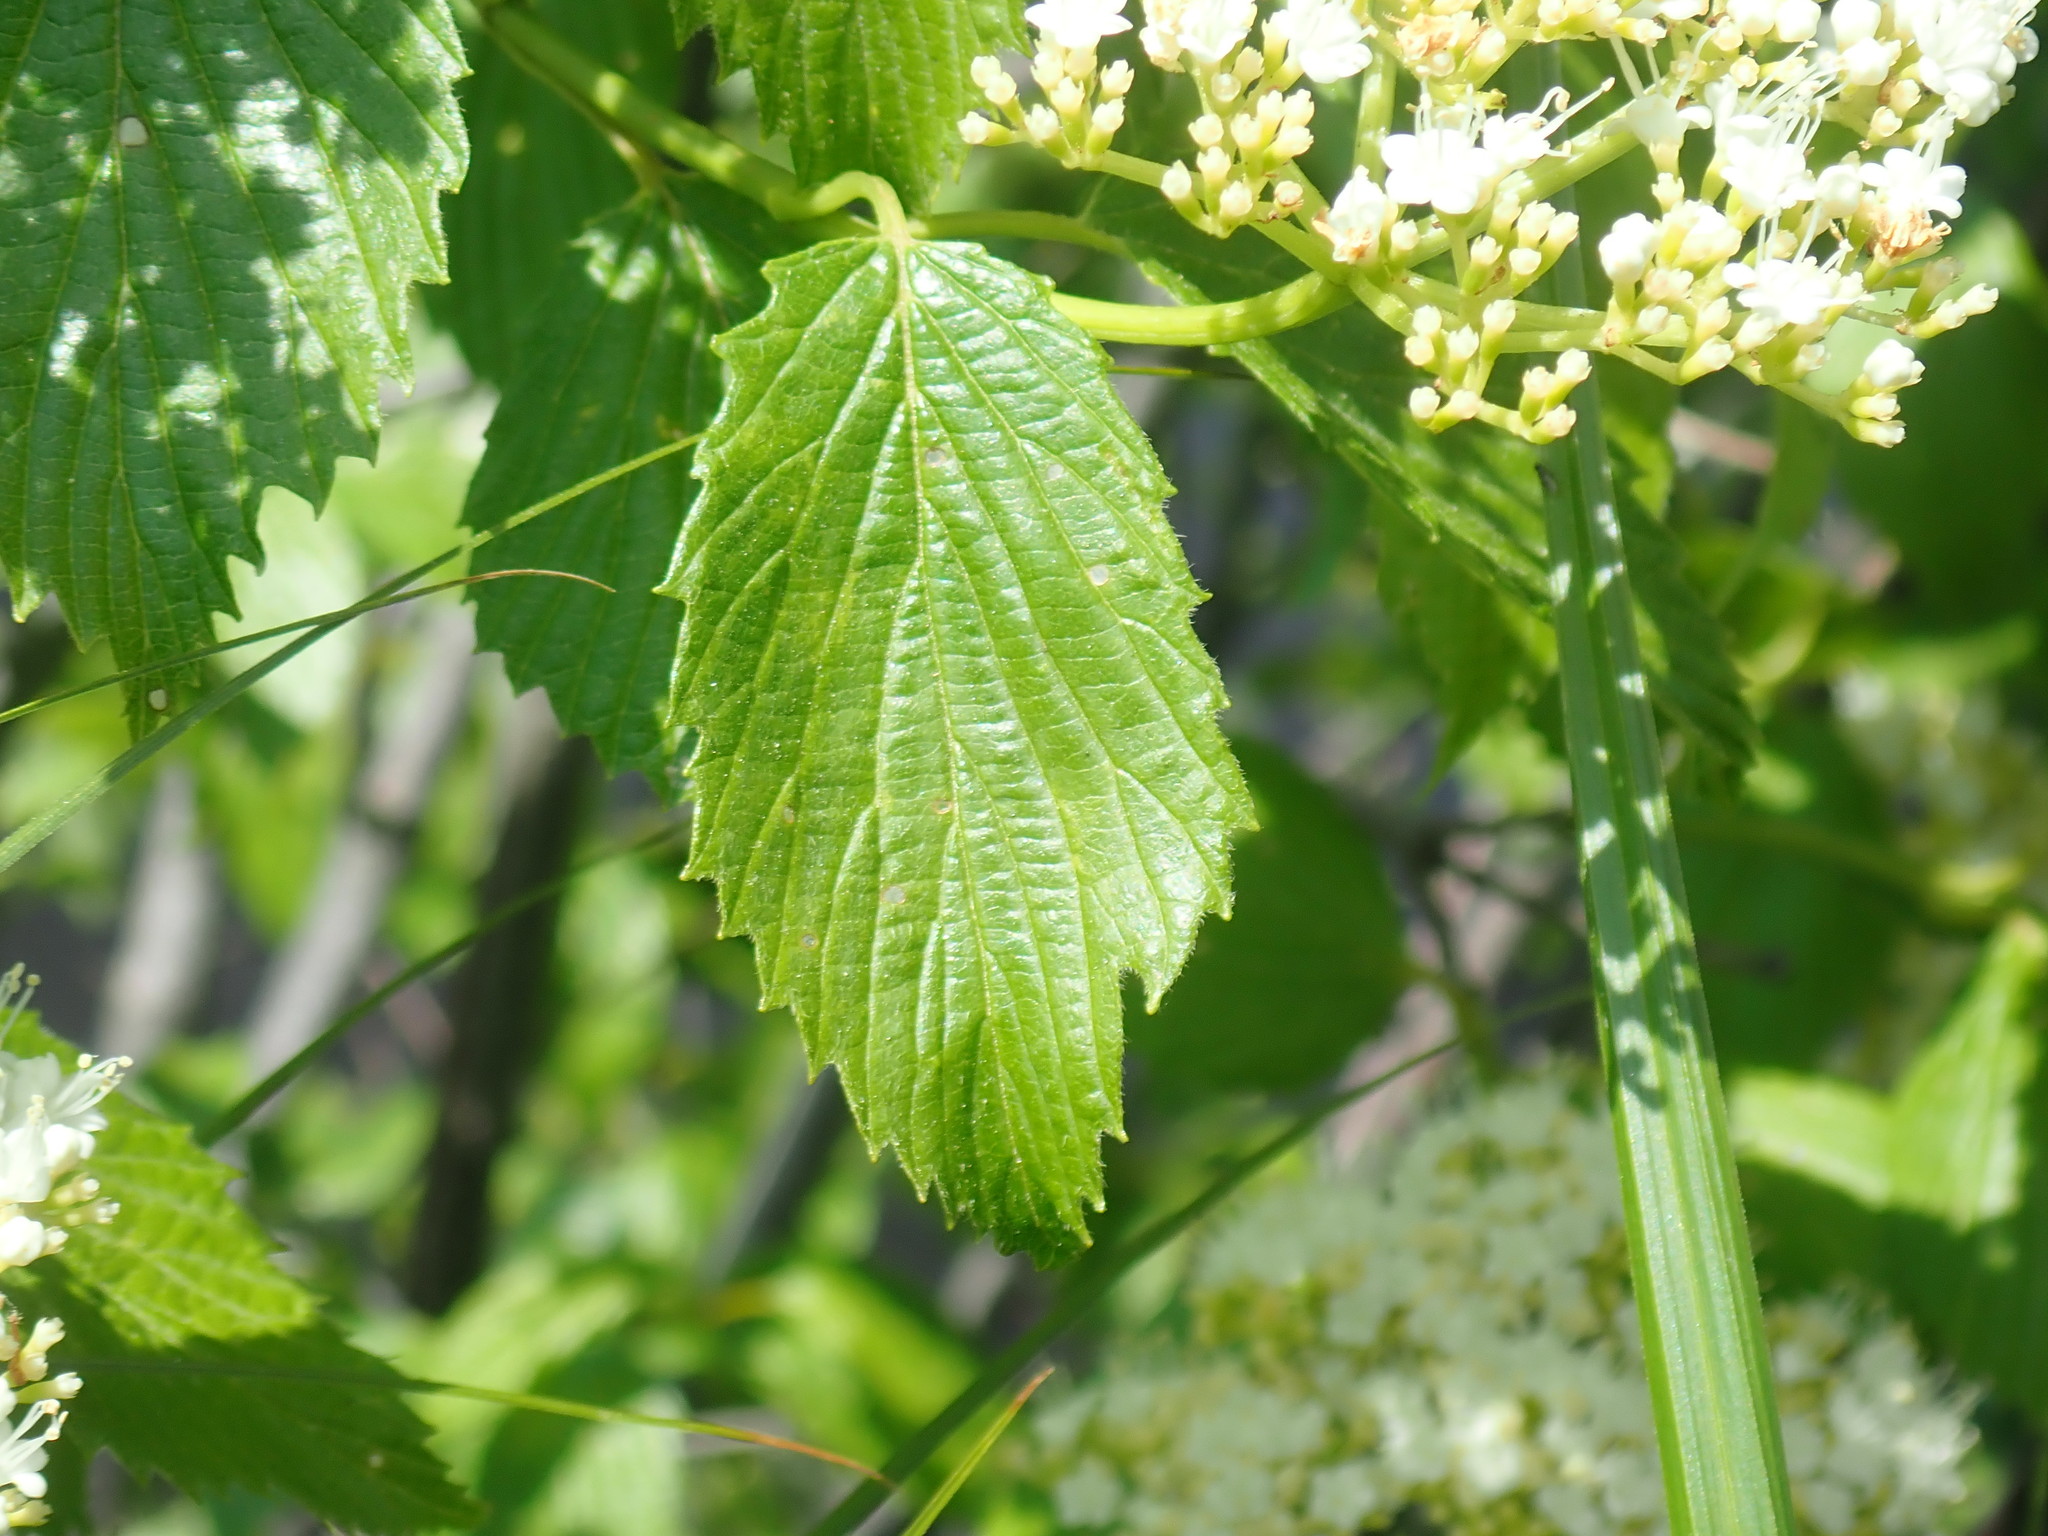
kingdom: Plantae
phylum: Tracheophyta
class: Magnoliopsida
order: Dipsacales
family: Viburnaceae
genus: Viburnum
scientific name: Viburnum dentatum
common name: Arrow-wood
